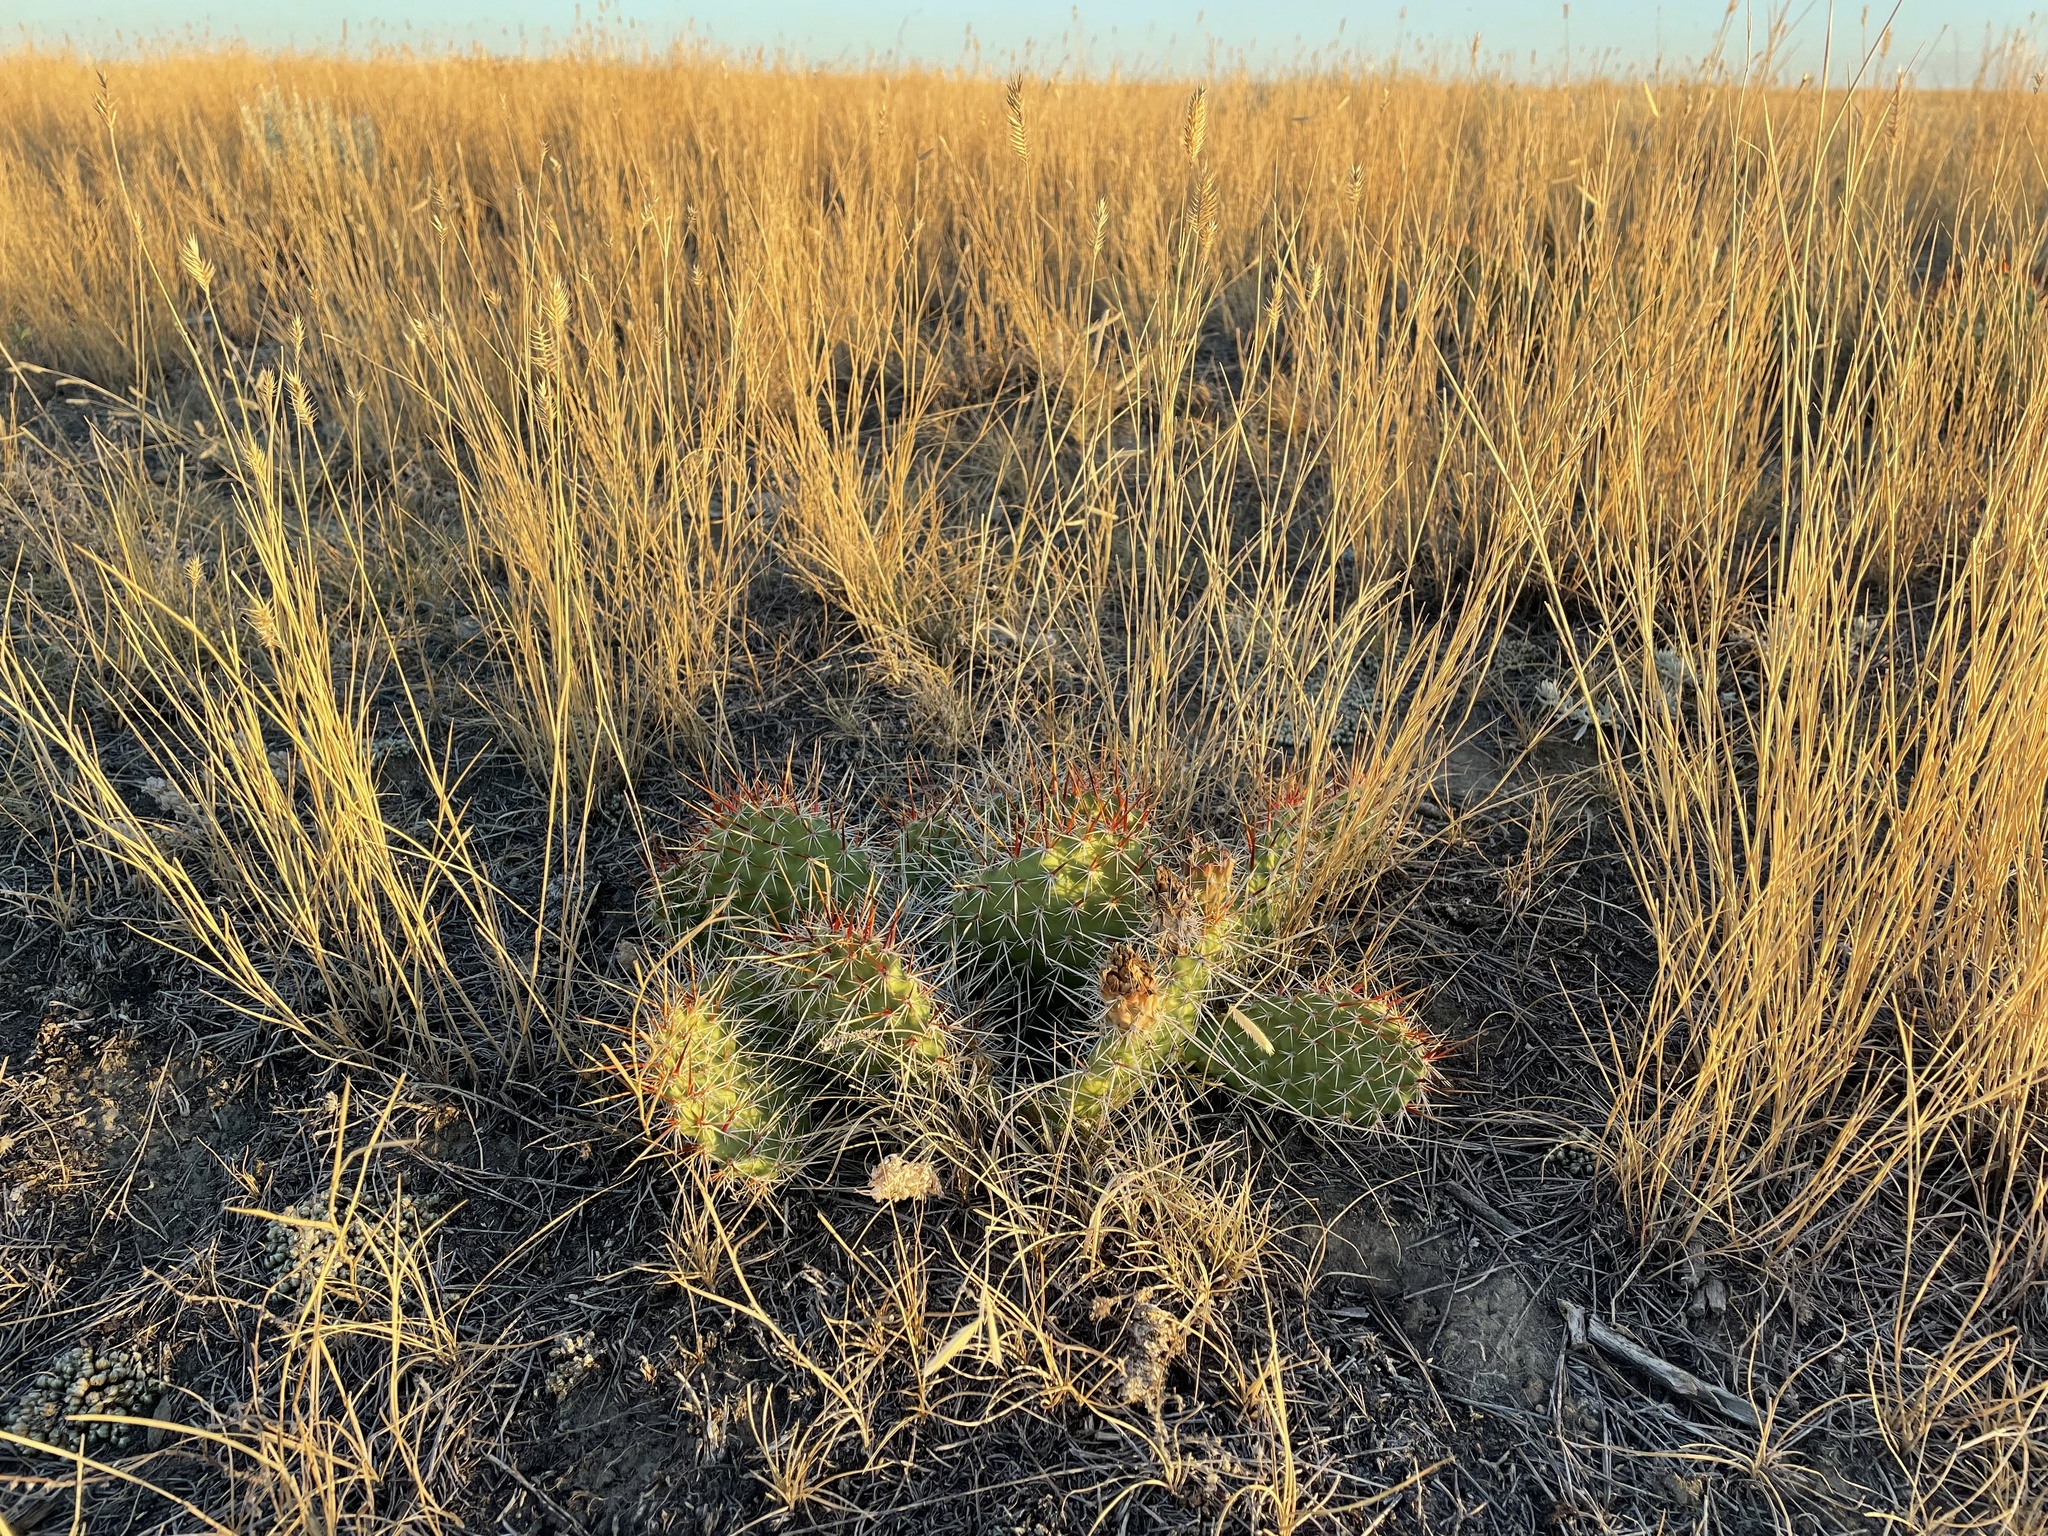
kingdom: Plantae
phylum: Tracheophyta
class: Magnoliopsida
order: Caryophyllales
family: Cactaceae
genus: Opuntia
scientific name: Opuntia polyacantha
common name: Plains prickly-pear
